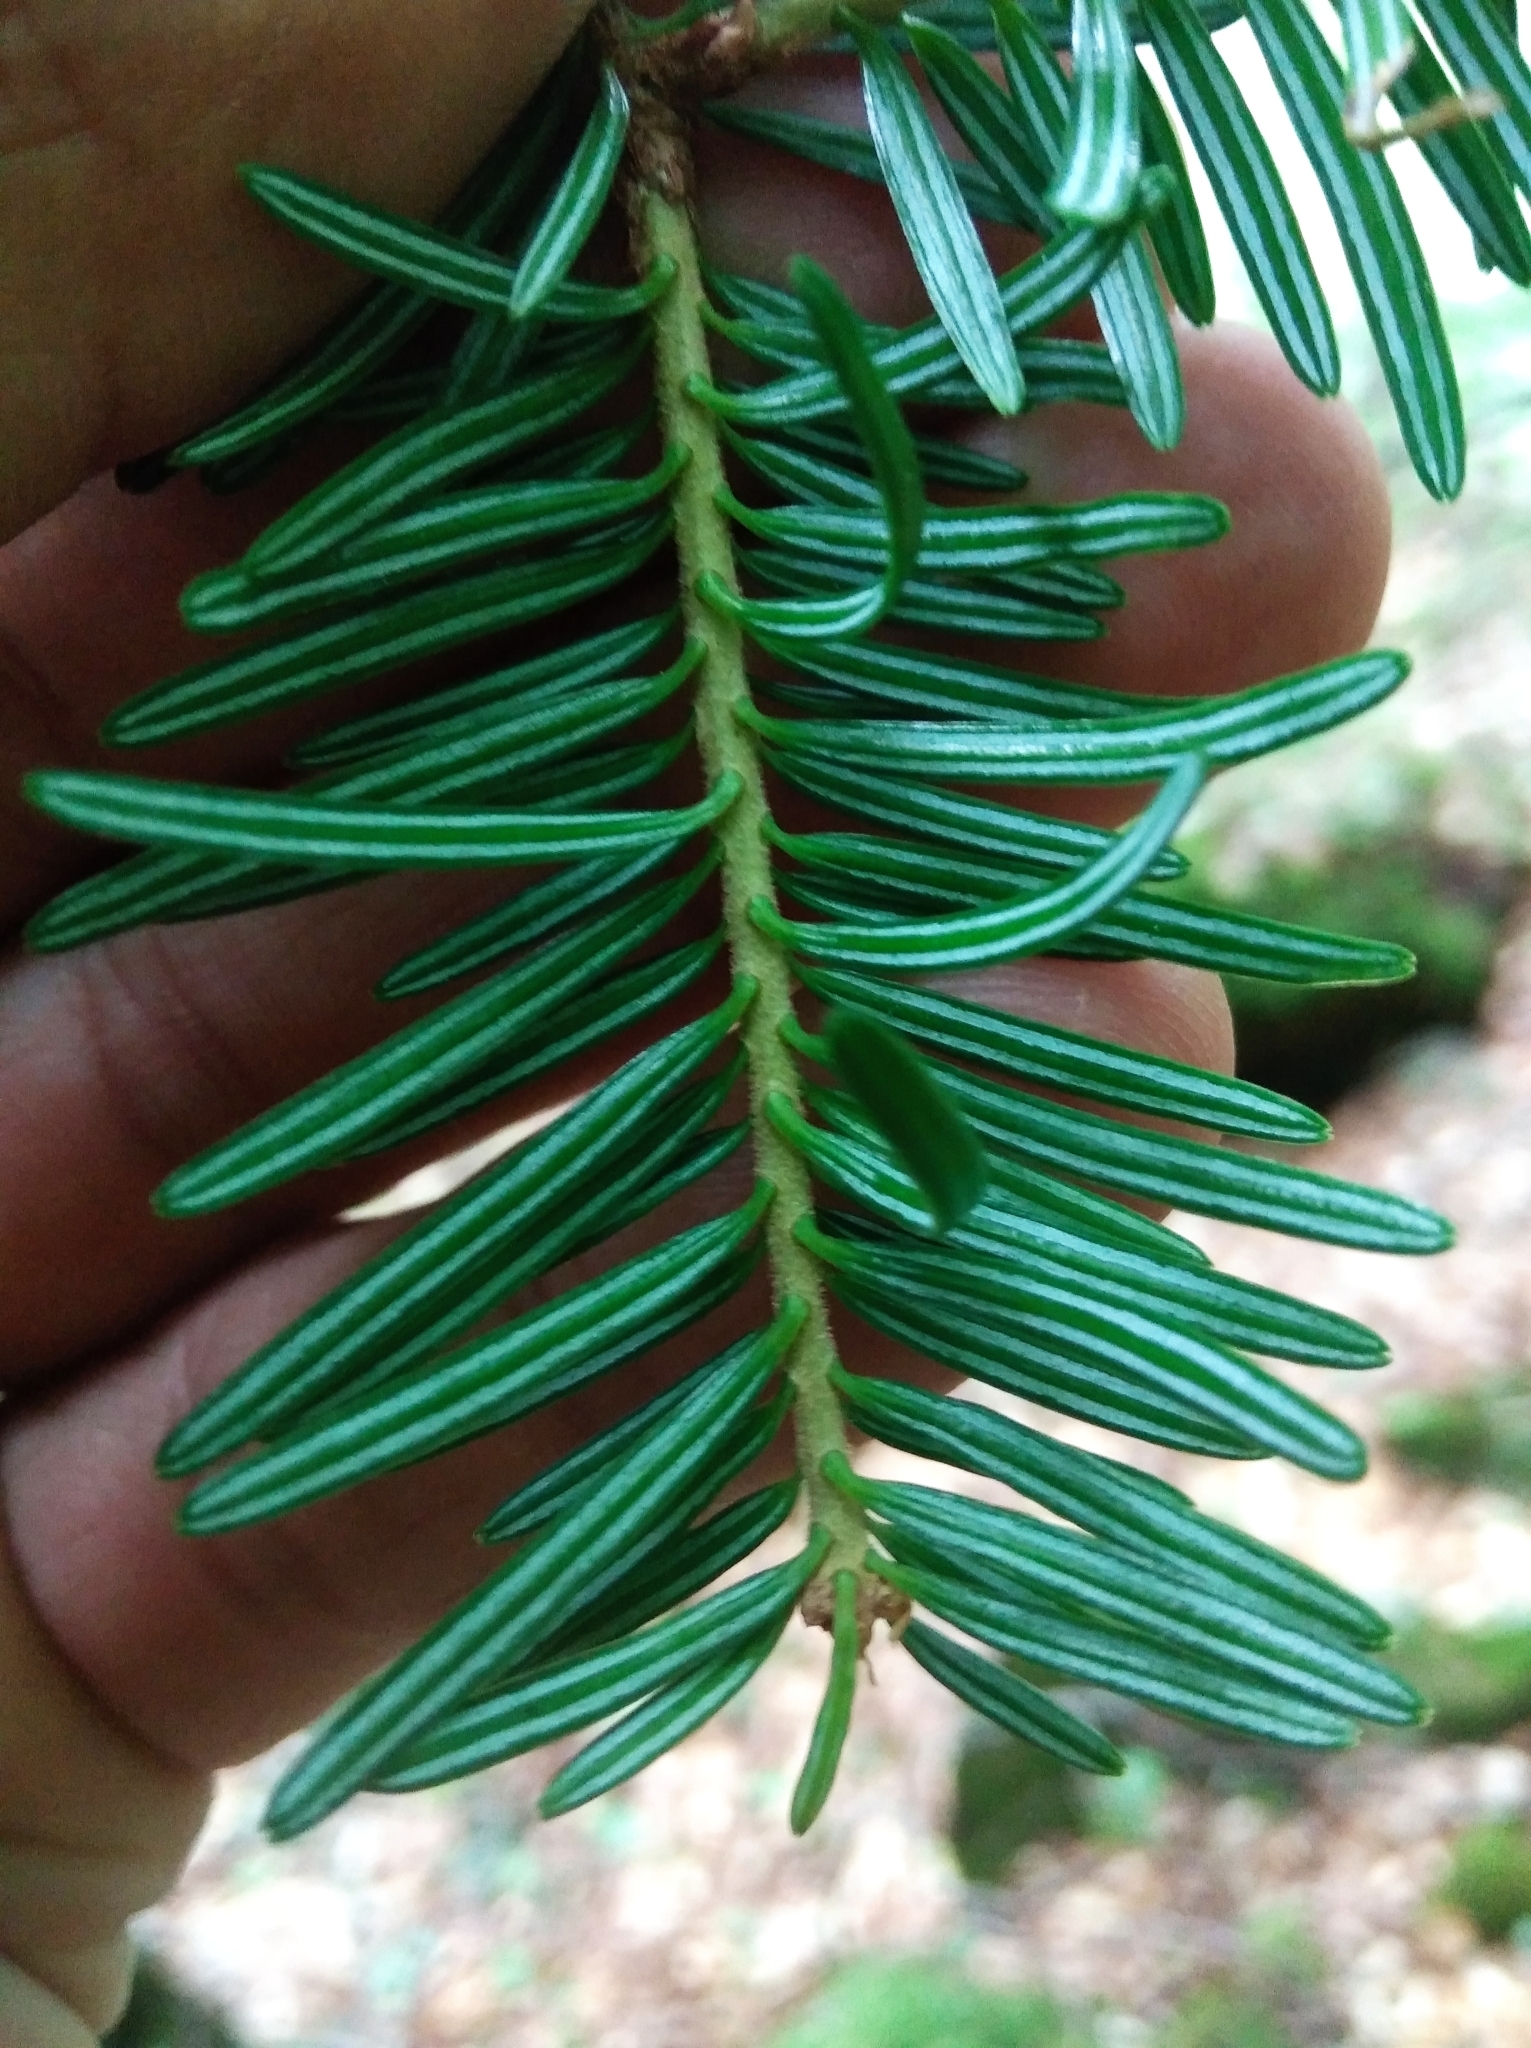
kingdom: Plantae
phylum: Tracheophyta
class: Pinopsida
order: Pinales
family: Pinaceae
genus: Abies
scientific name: Abies alba
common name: Silver fir
